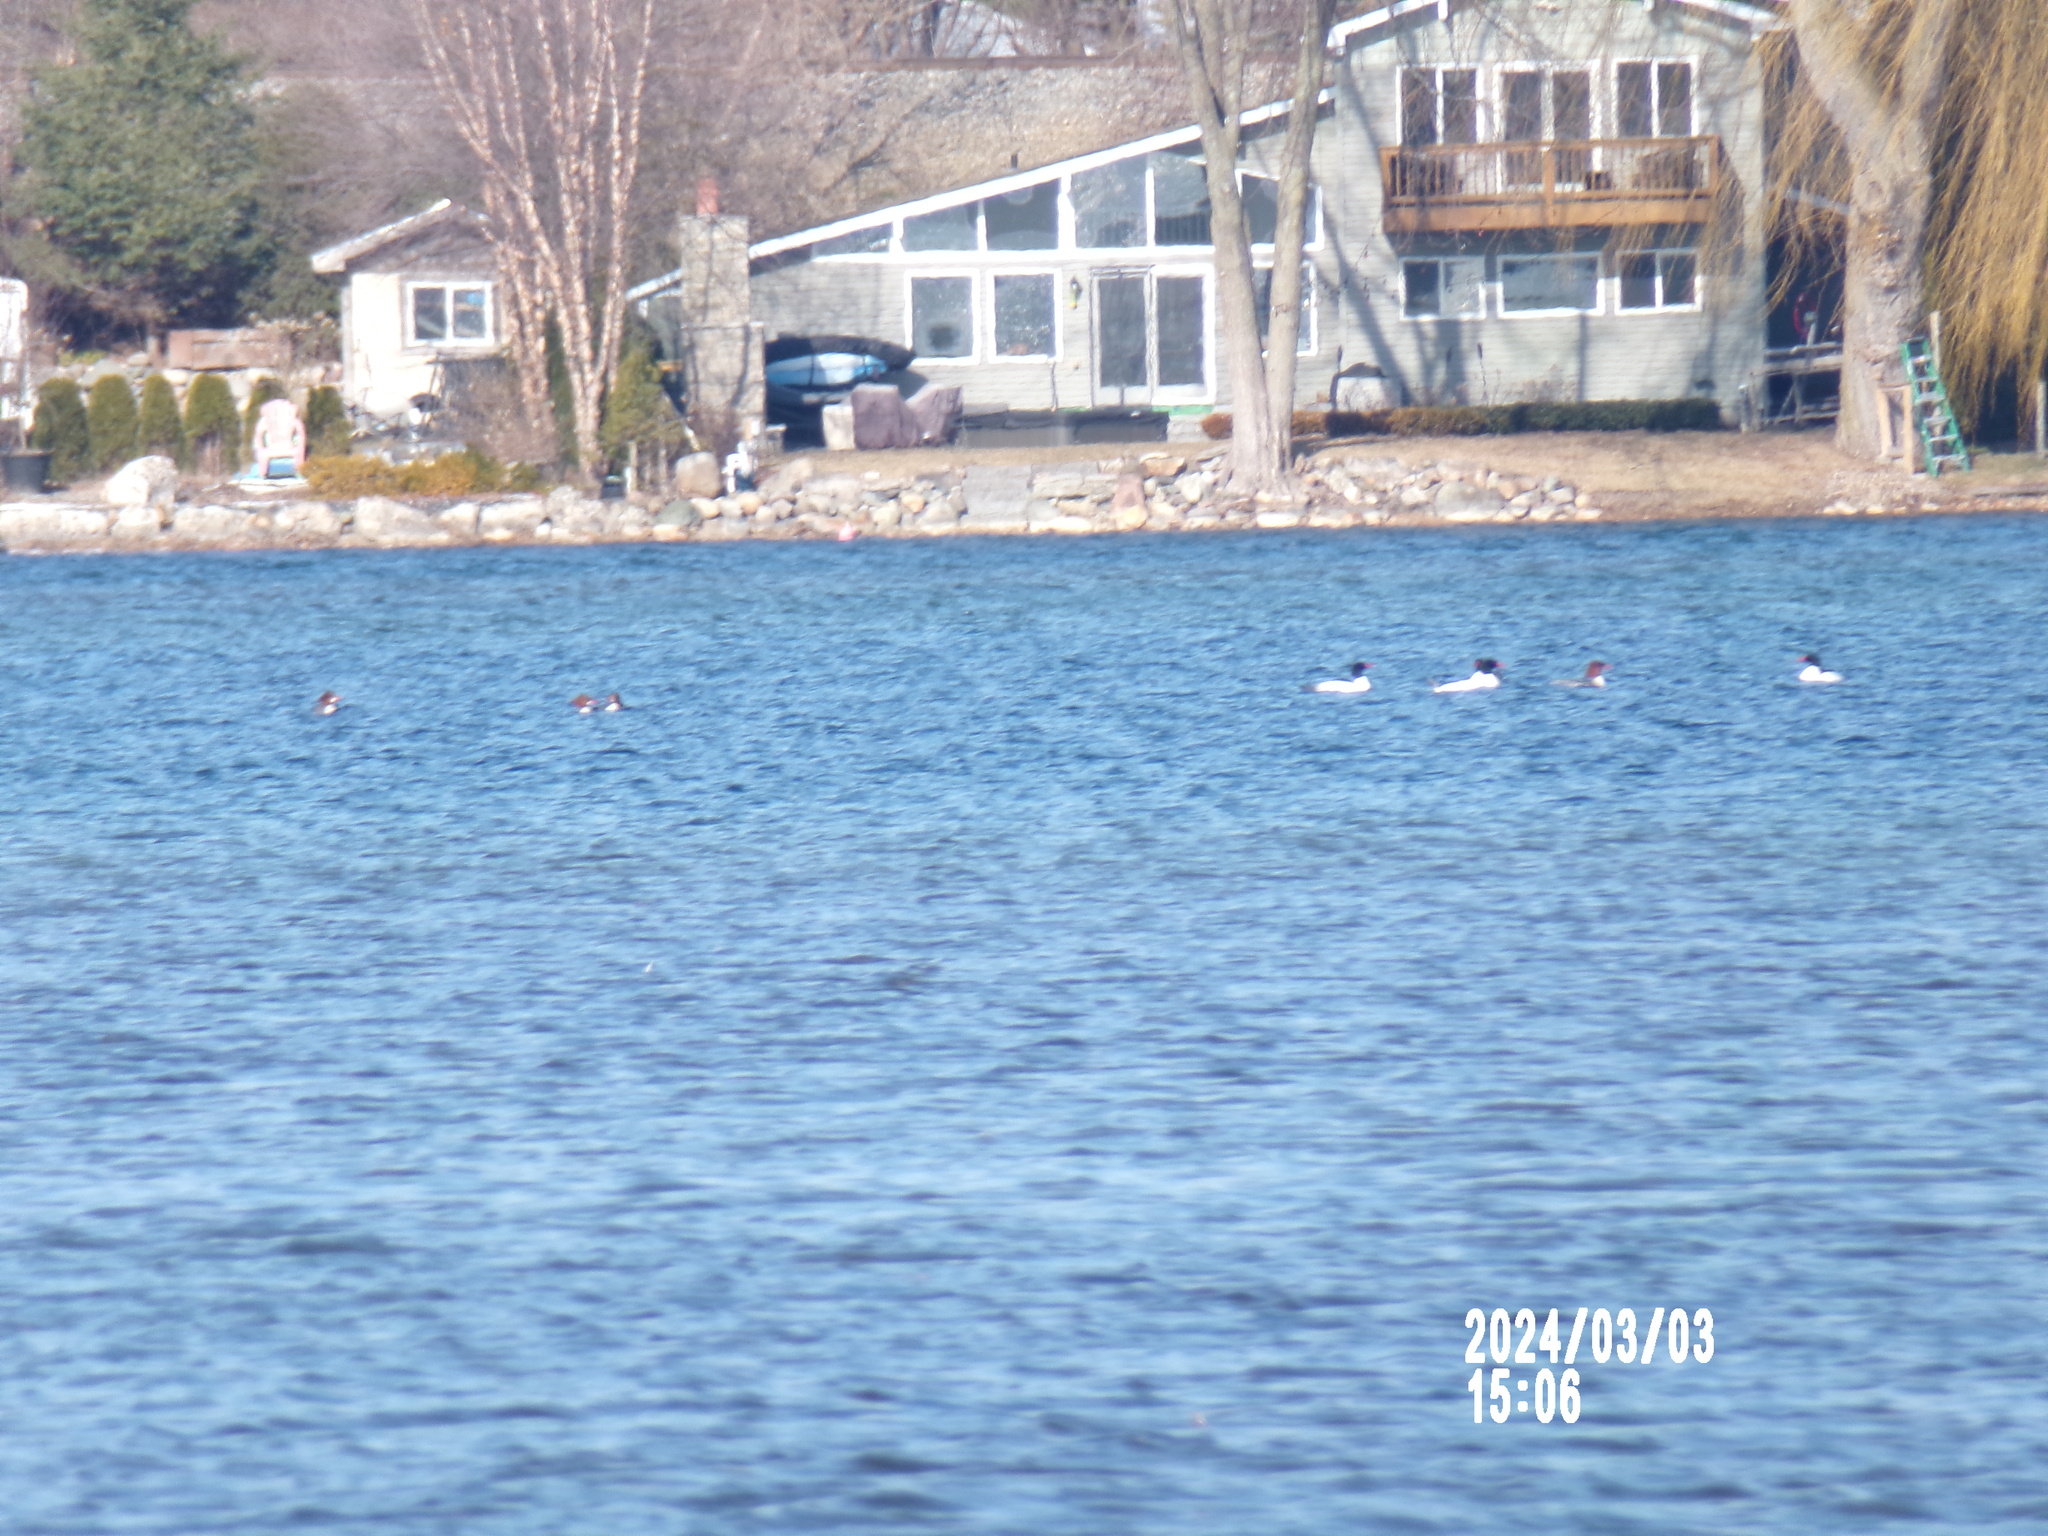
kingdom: Animalia
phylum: Chordata
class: Aves
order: Anseriformes
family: Anatidae
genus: Mergus
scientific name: Mergus merganser
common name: Common merganser
